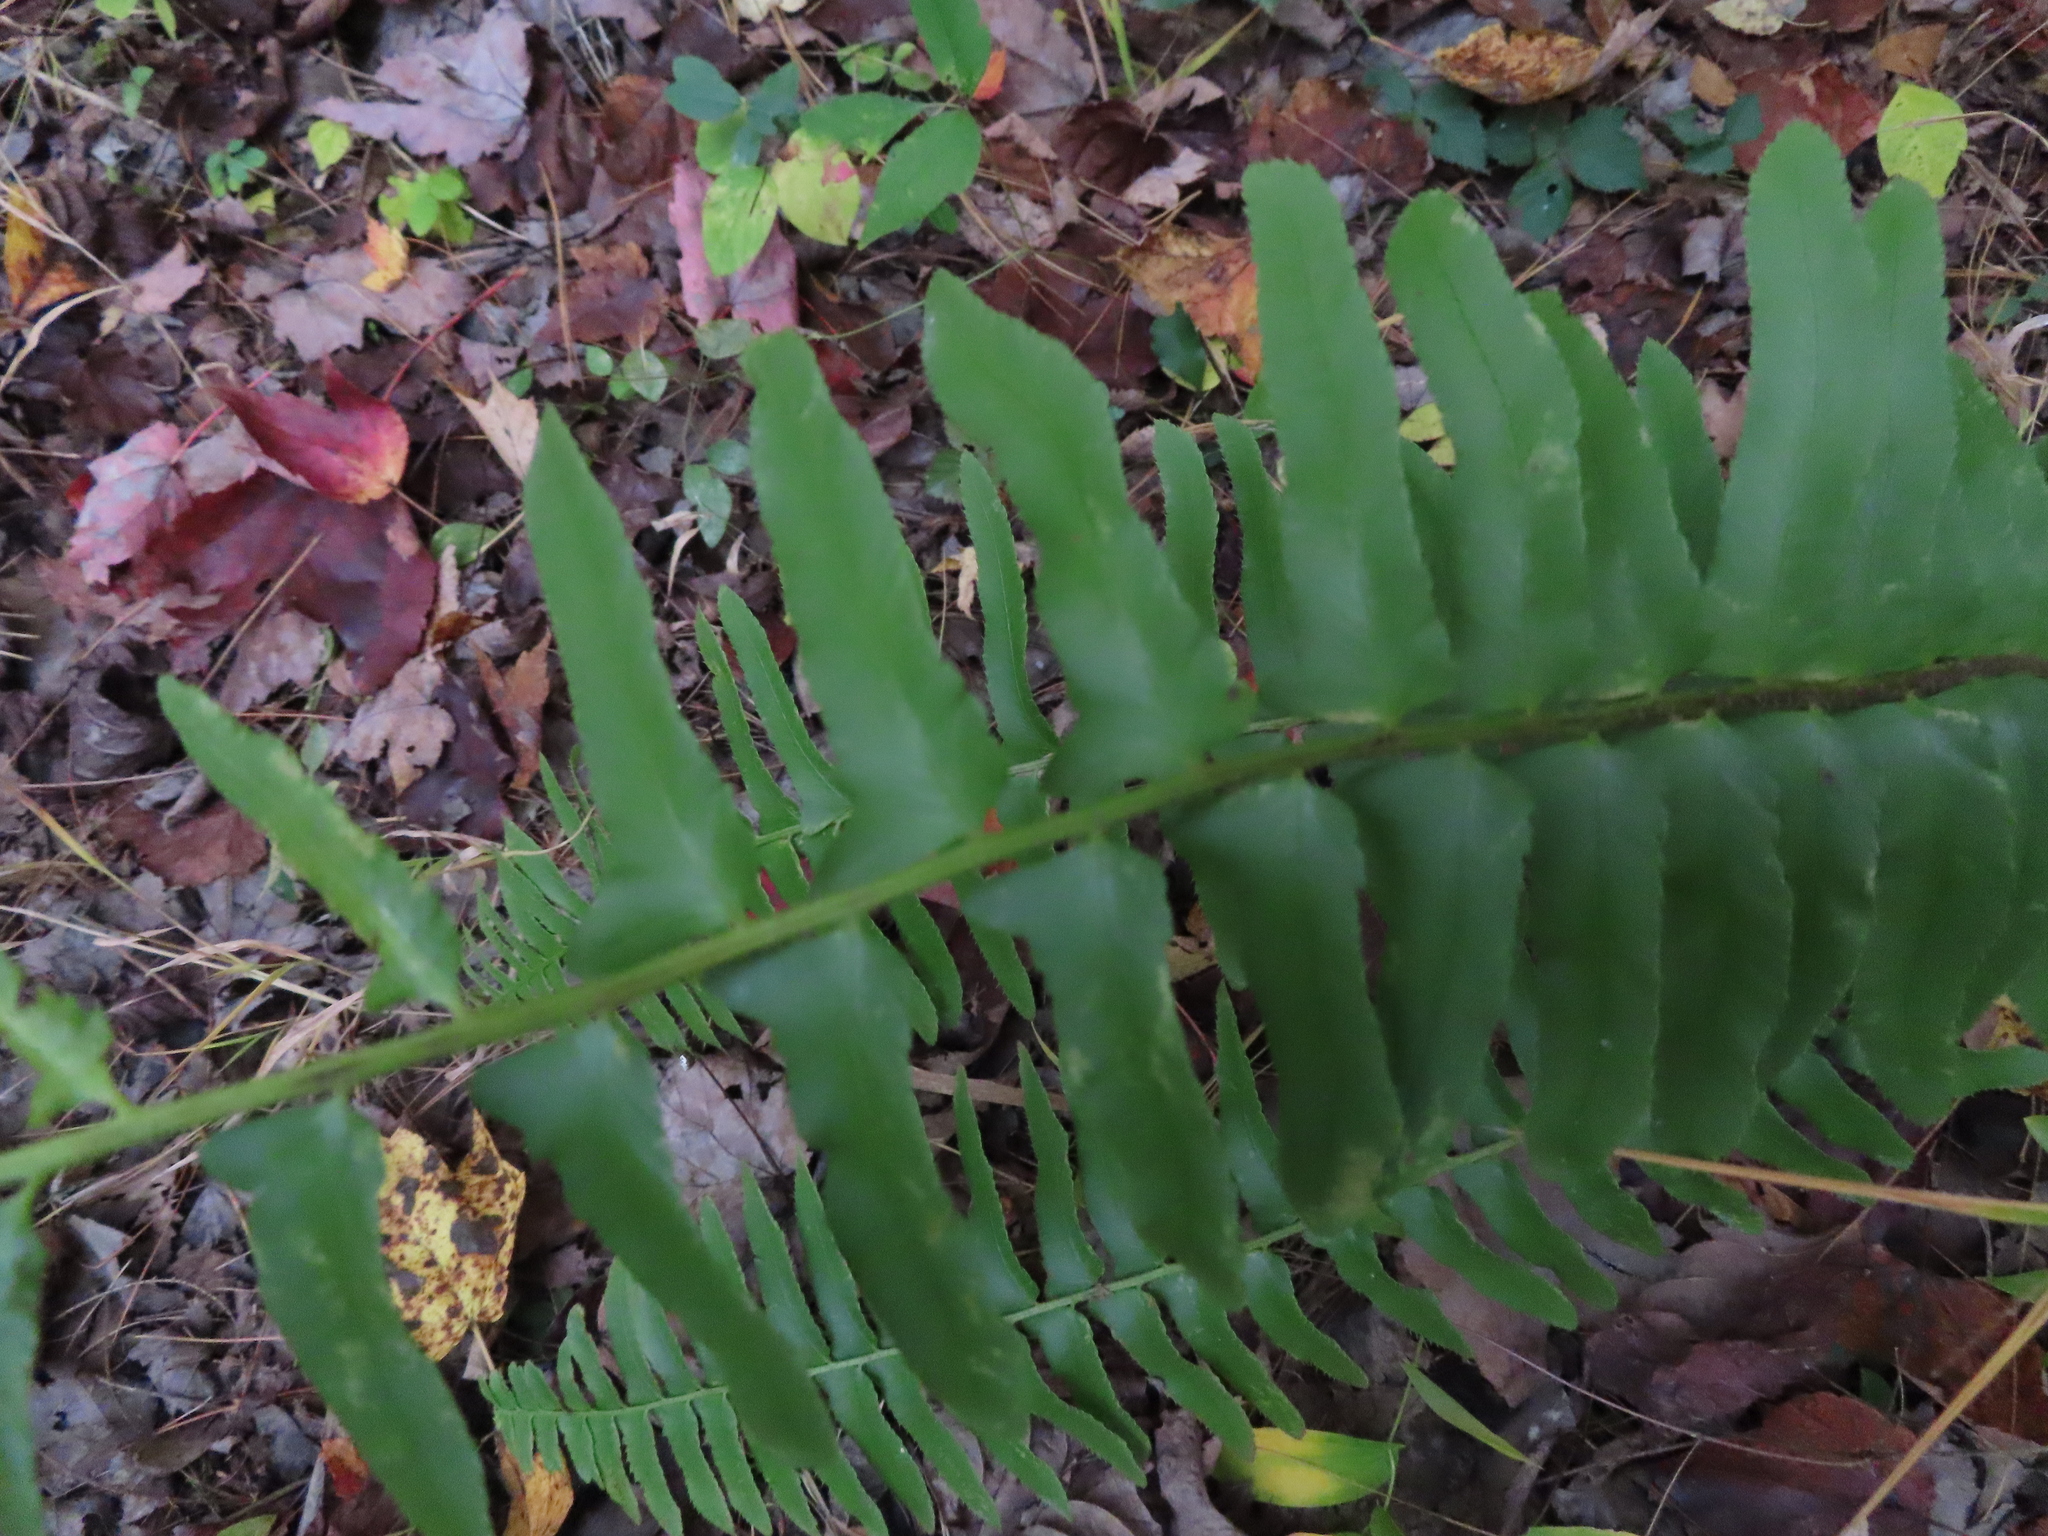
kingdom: Plantae
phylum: Tracheophyta
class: Polypodiopsida
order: Polypodiales
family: Dryopteridaceae
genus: Polystichum
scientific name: Polystichum acrostichoides
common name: Christmas fern
